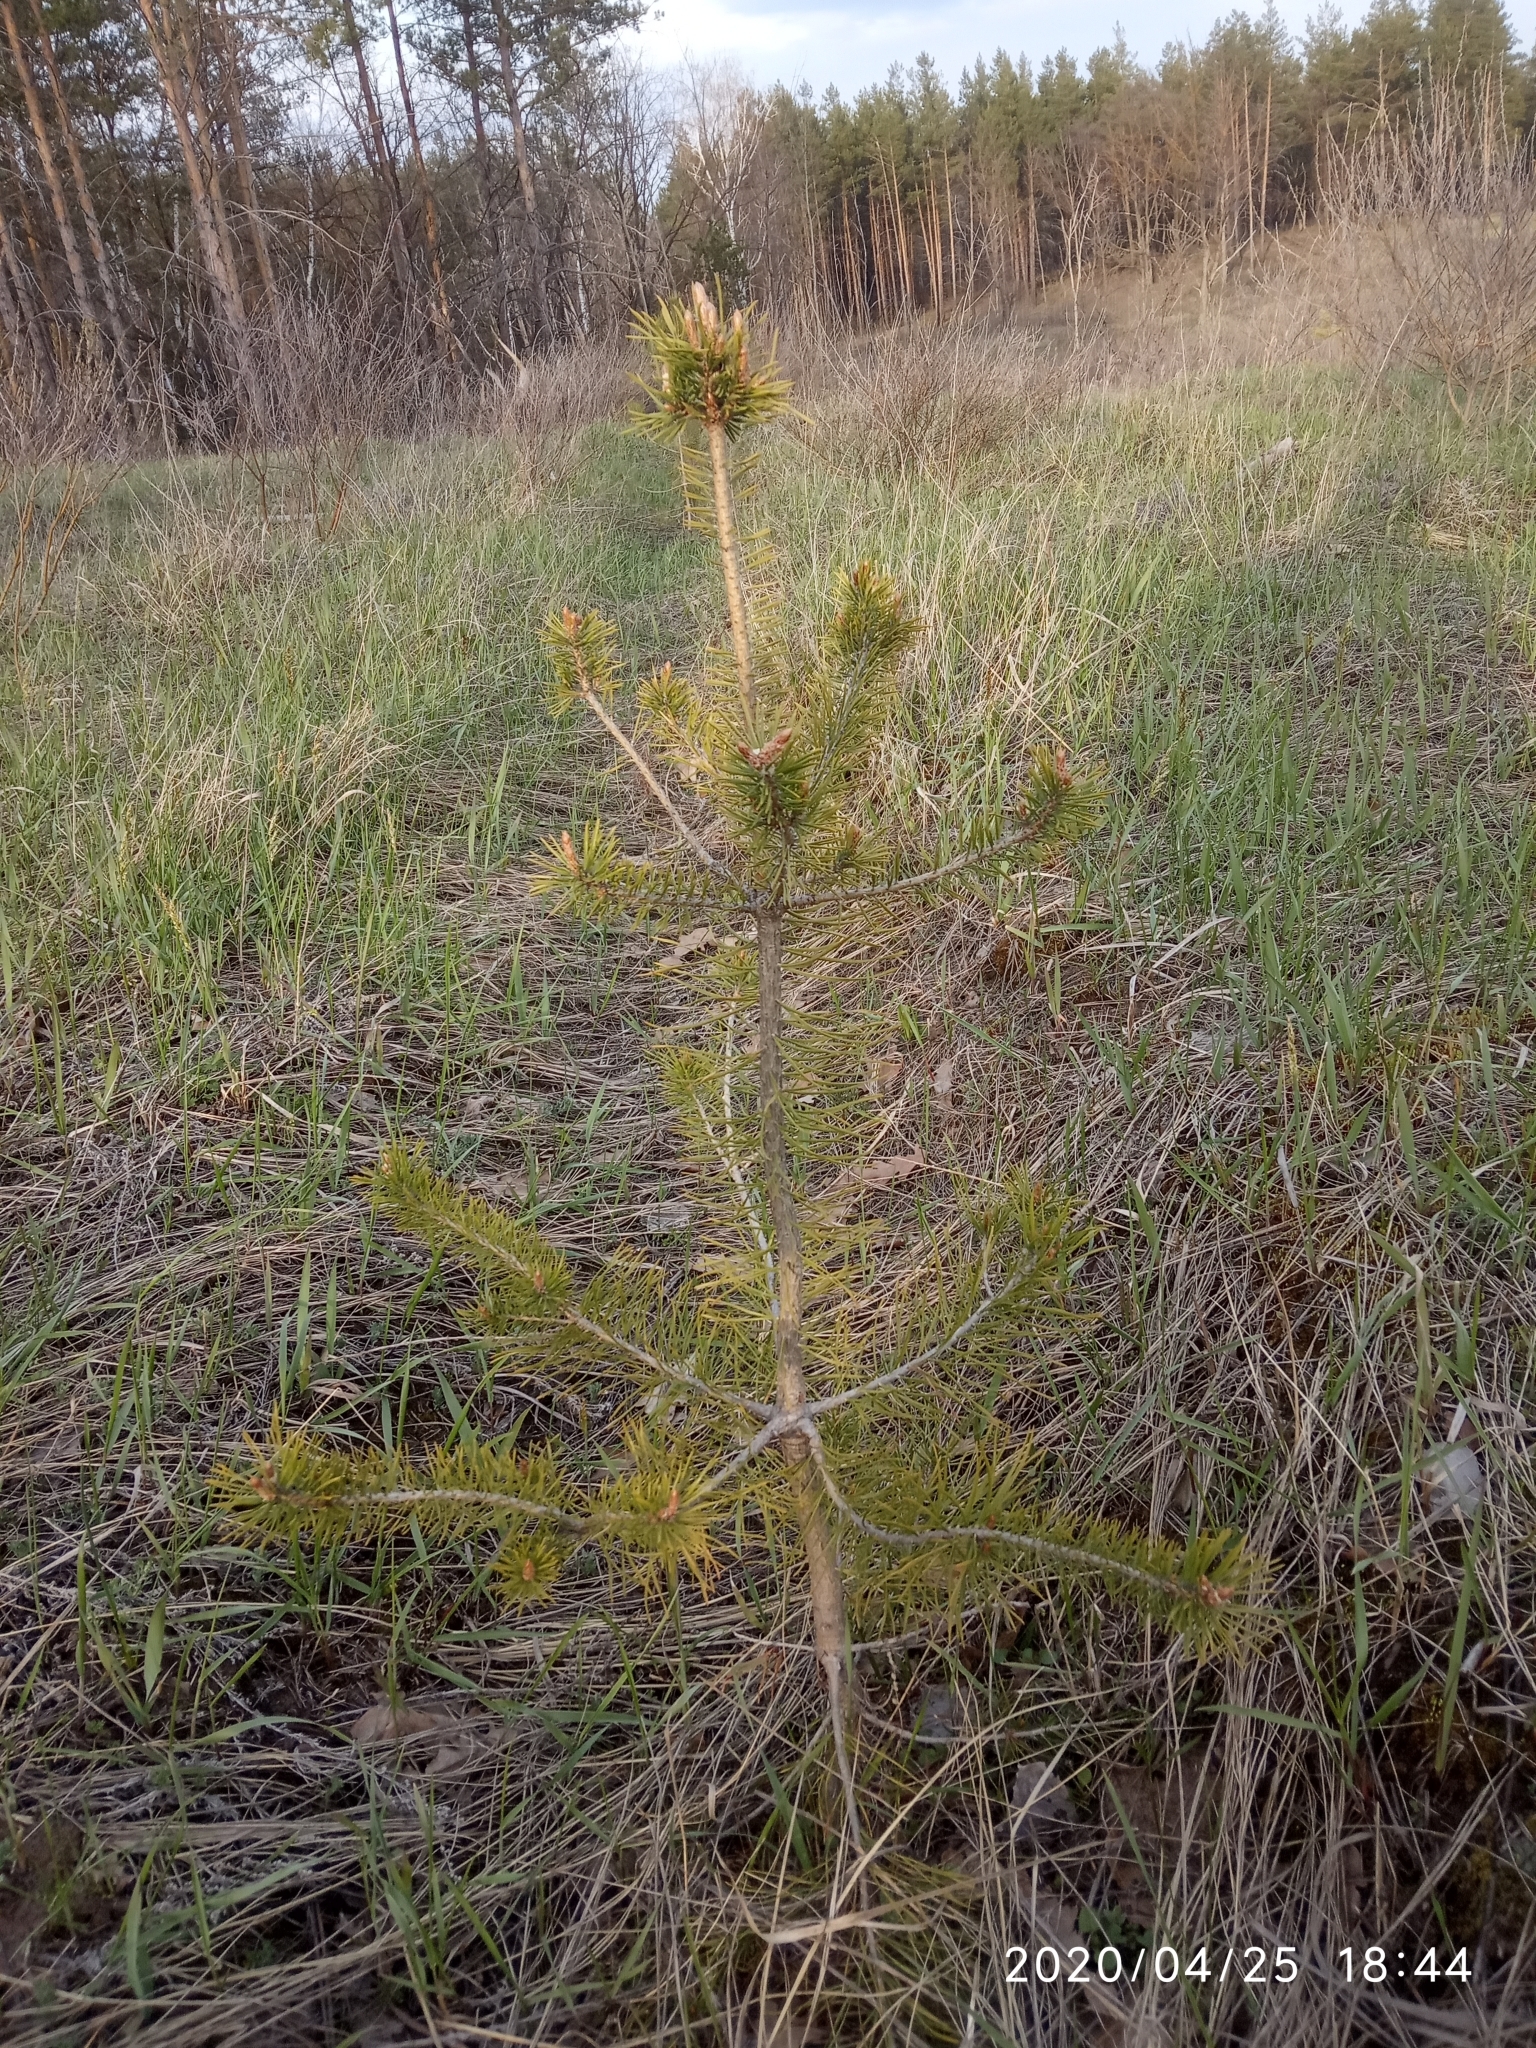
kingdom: Plantae
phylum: Tracheophyta
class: Pinopsida
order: Pinales
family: Pinaceae
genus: Pinus
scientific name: Pinus sylvestris
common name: Scots pine
